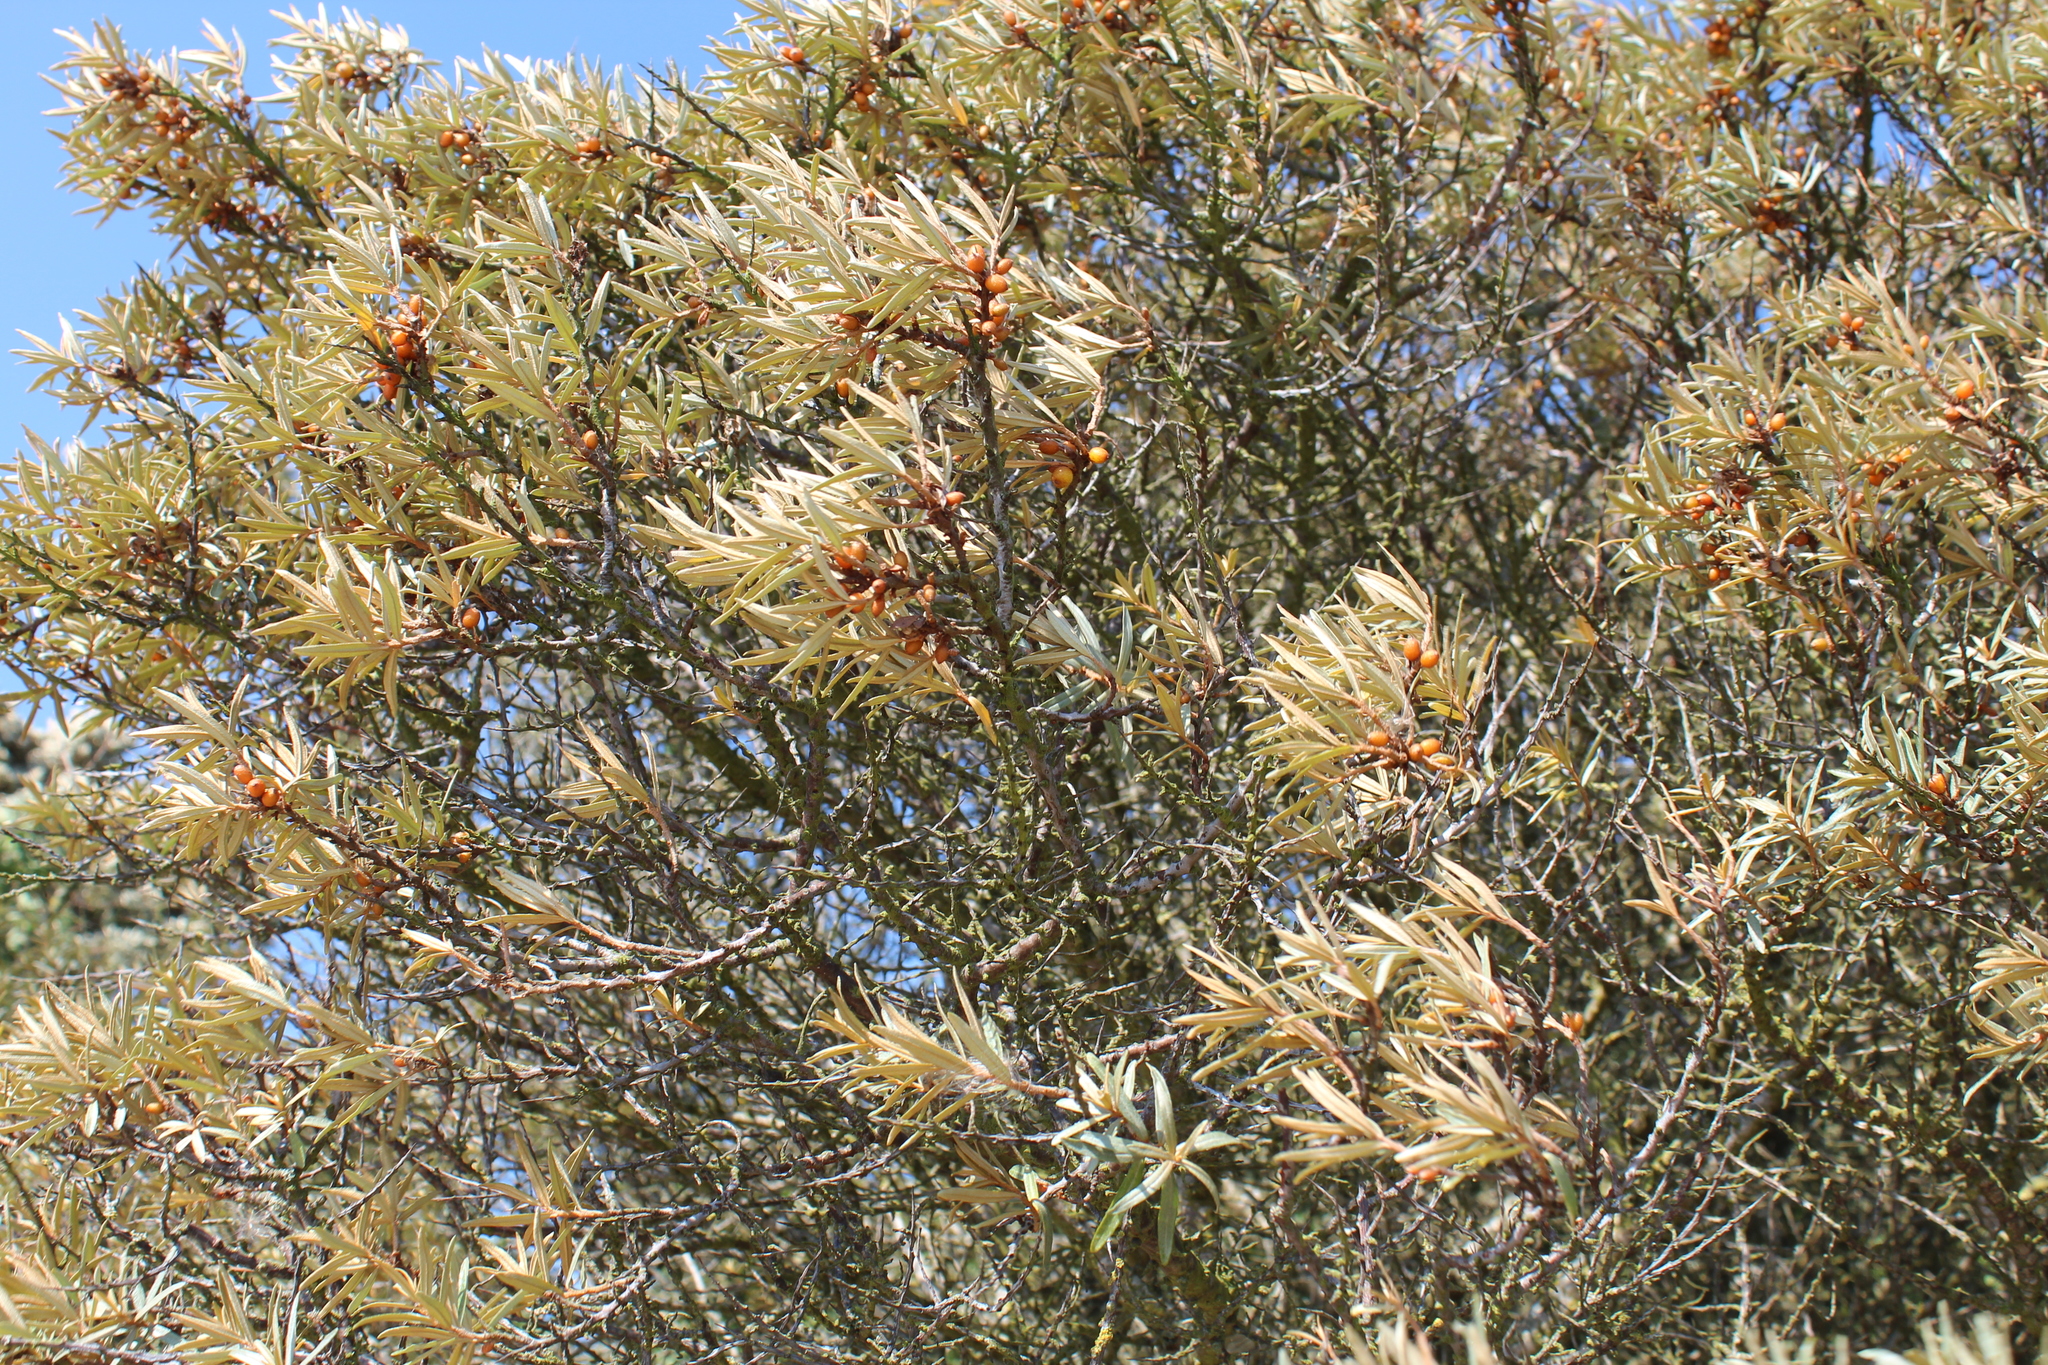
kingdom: Plantae
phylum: Tracheophyta
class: Magnoliopsida
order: Rosales
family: Elaeagnaceae
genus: Hippophae
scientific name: Hippophae rhamnoides
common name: Sea-buckthorn
